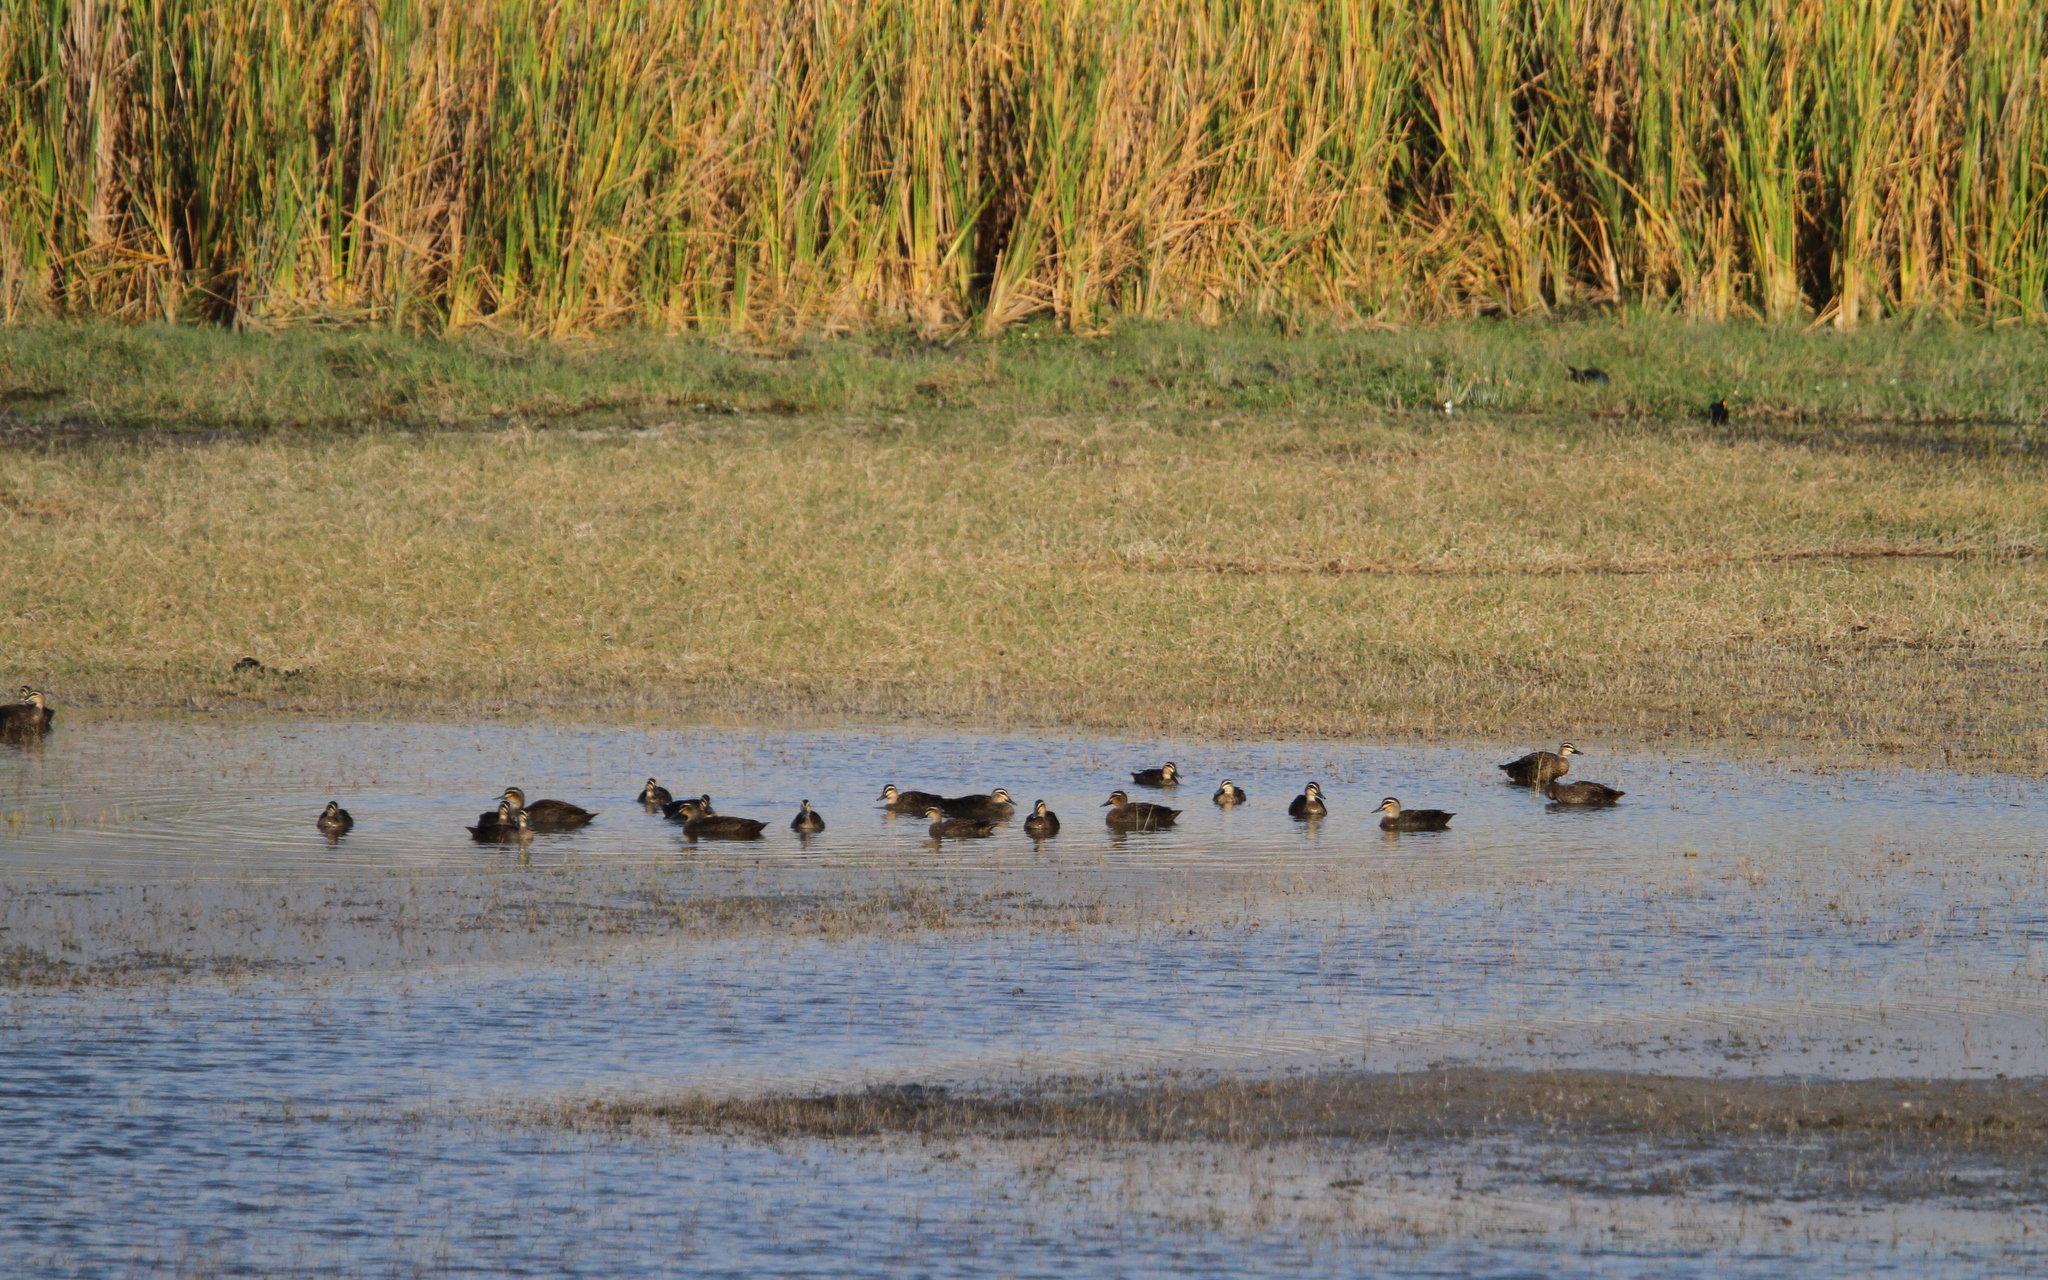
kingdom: Animalia
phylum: Chordata
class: Aves
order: Anseriformes
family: Anatidae
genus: Anas
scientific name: Anas superciliosa
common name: Pacific black duck
